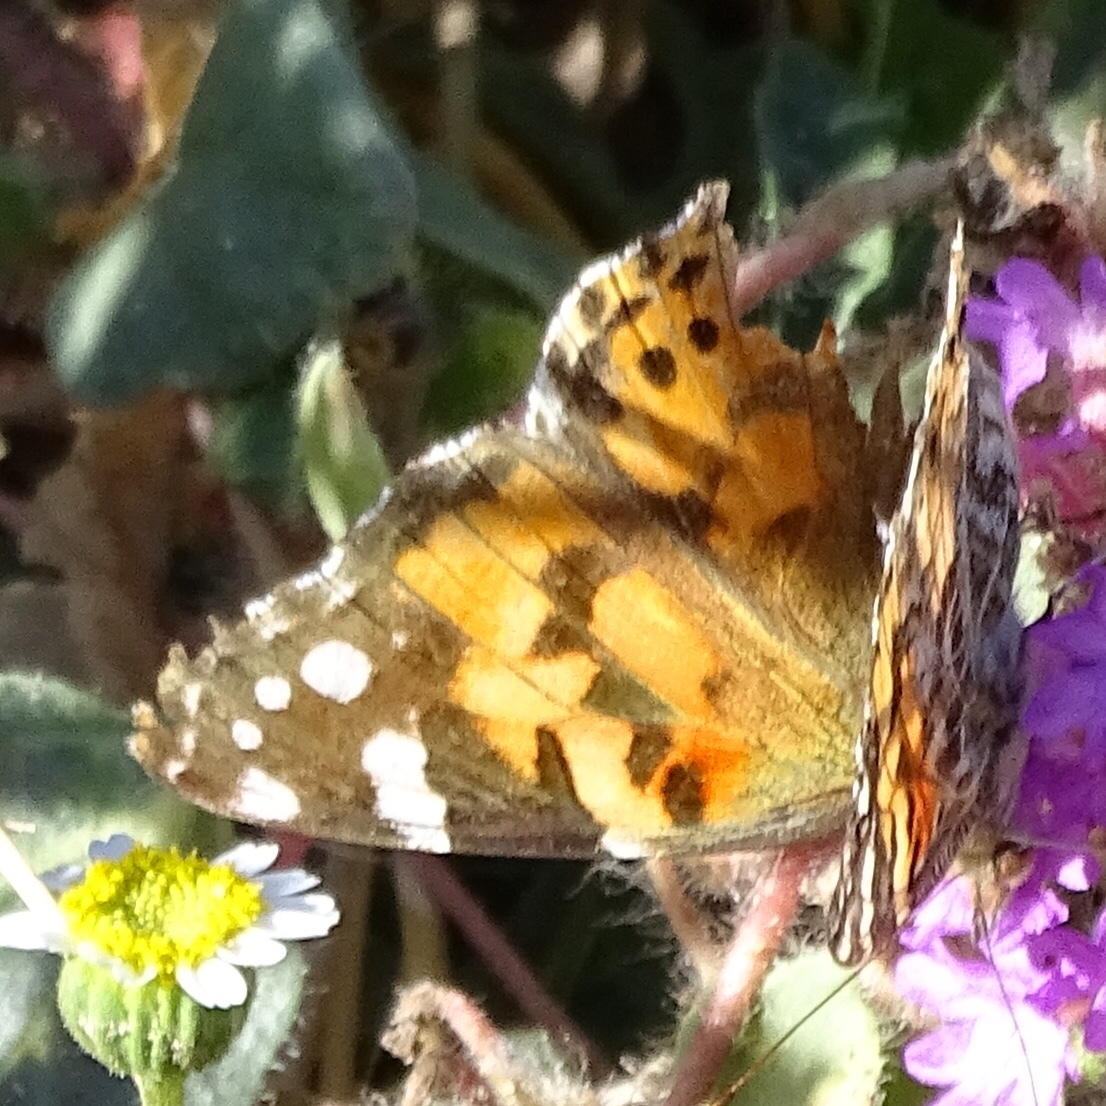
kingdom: Animalia
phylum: Arthropoda
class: Insecta
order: Lepidoptera
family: Nymphalidae
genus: Vanessa
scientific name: Vanessa cardui
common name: Painted lady
